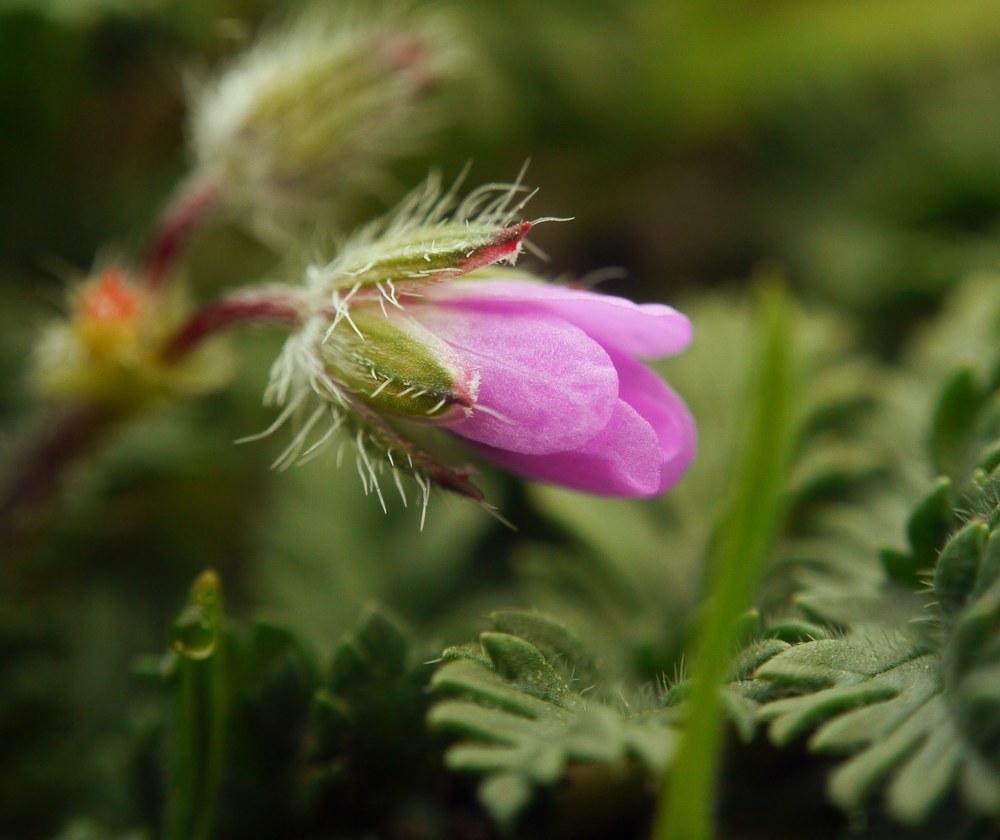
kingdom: Plantae
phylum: Tracheophyta
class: Magnoliopsida
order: Geraniales
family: Geraniaceae
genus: Erodium
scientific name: Erodium cicutarium
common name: Common stork's-bill
